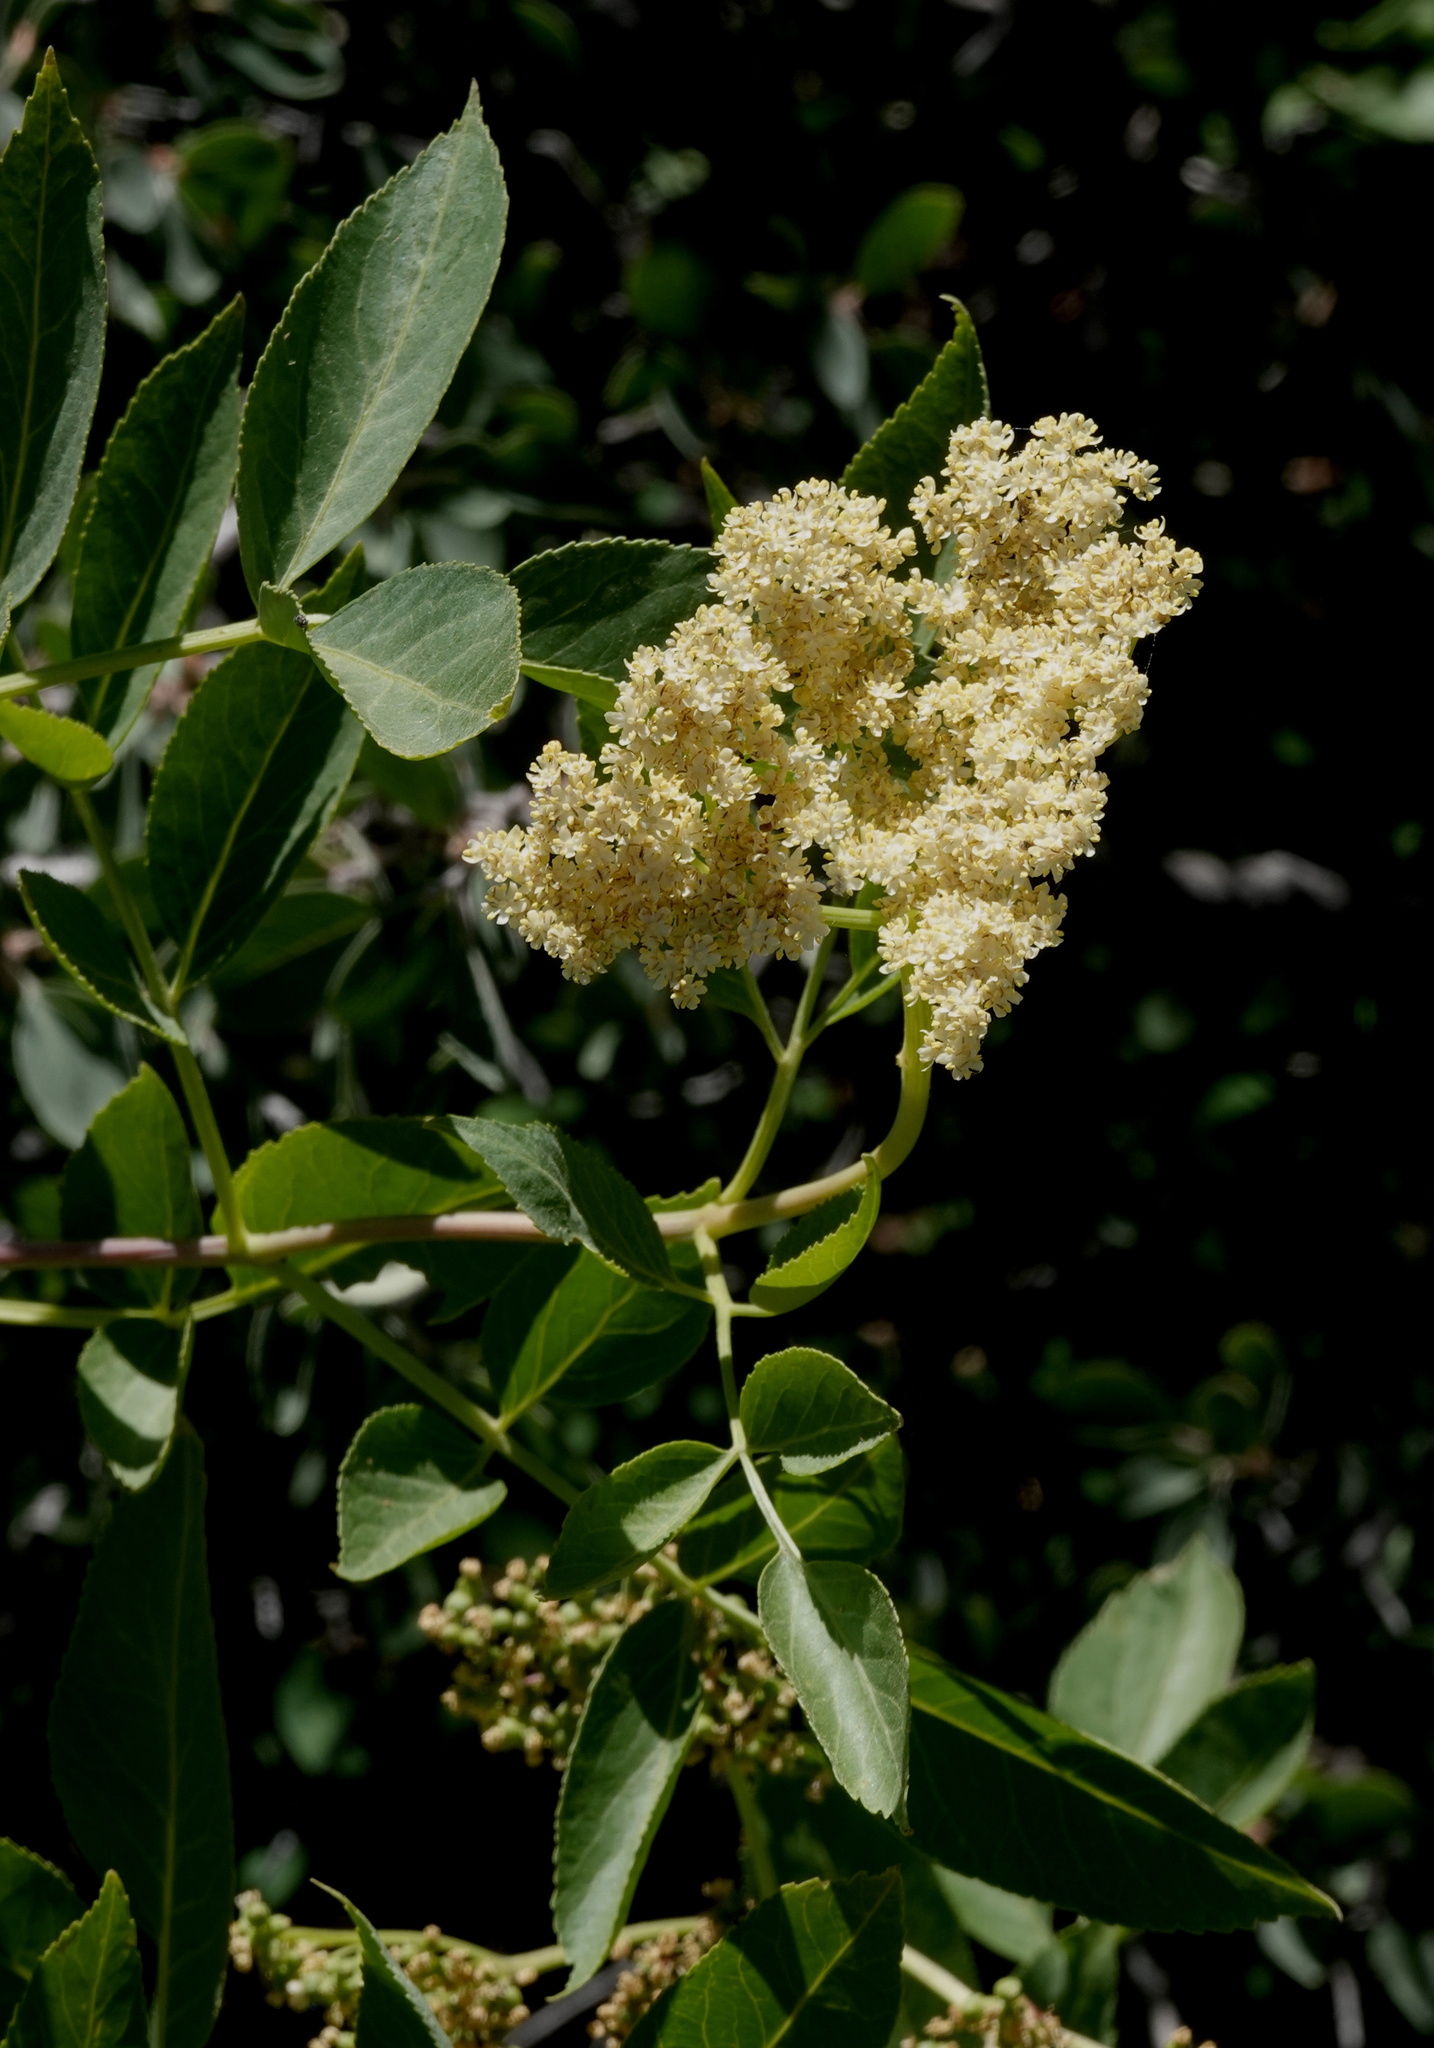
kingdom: Plantae
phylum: Tracheophyta
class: Magnoliopsida
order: Dipsacales
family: Viburnaceae
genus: Sambucus
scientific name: Sambucus racemosa
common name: Red-berried elder
